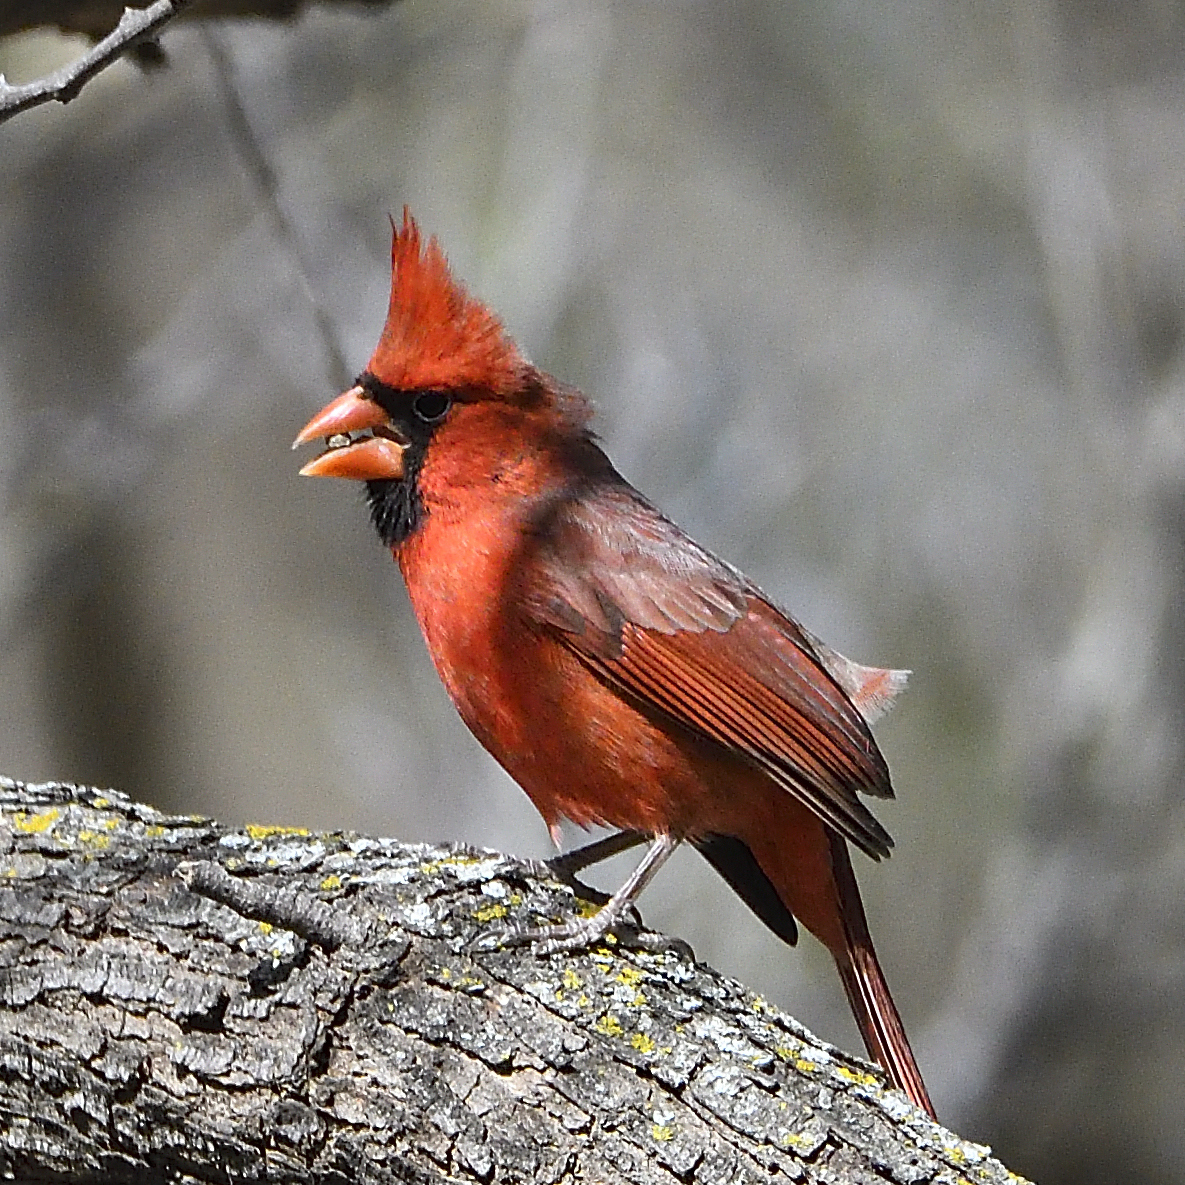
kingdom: Animalia
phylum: Chordata
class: Aves
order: Passeriformes
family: Cardinalidae
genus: Cardinalis
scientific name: Cardinalis cardinalis
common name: Northern cardinal
